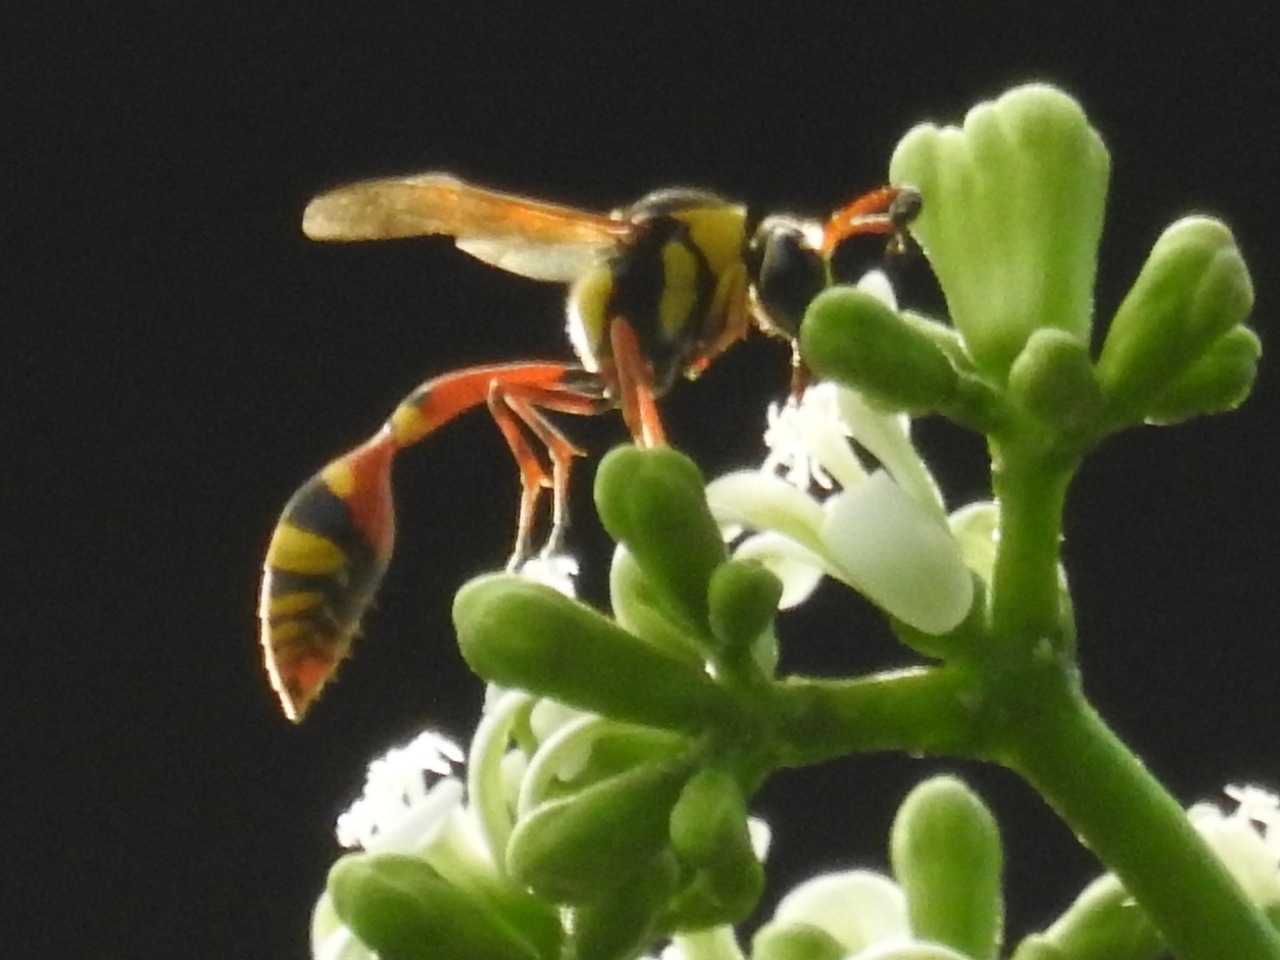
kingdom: Animalia
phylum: Arthropoda
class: Insecta
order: Hymenoptera
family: Eumenidae
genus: Delta
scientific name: Delta campaniforme
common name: Yellow and black potter wasp
